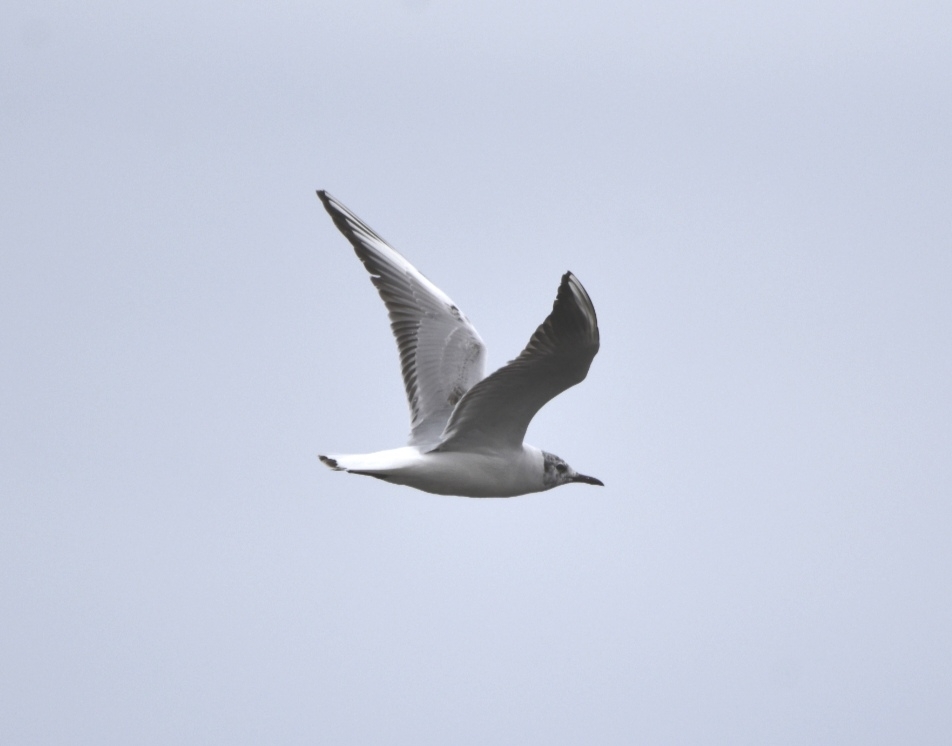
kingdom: Animalia
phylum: Chordata
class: Aves
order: Charadriiformes
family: Laridae
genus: Chroicocephalus
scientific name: Chroicocephalus ridibundus
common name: Black-headed gull
